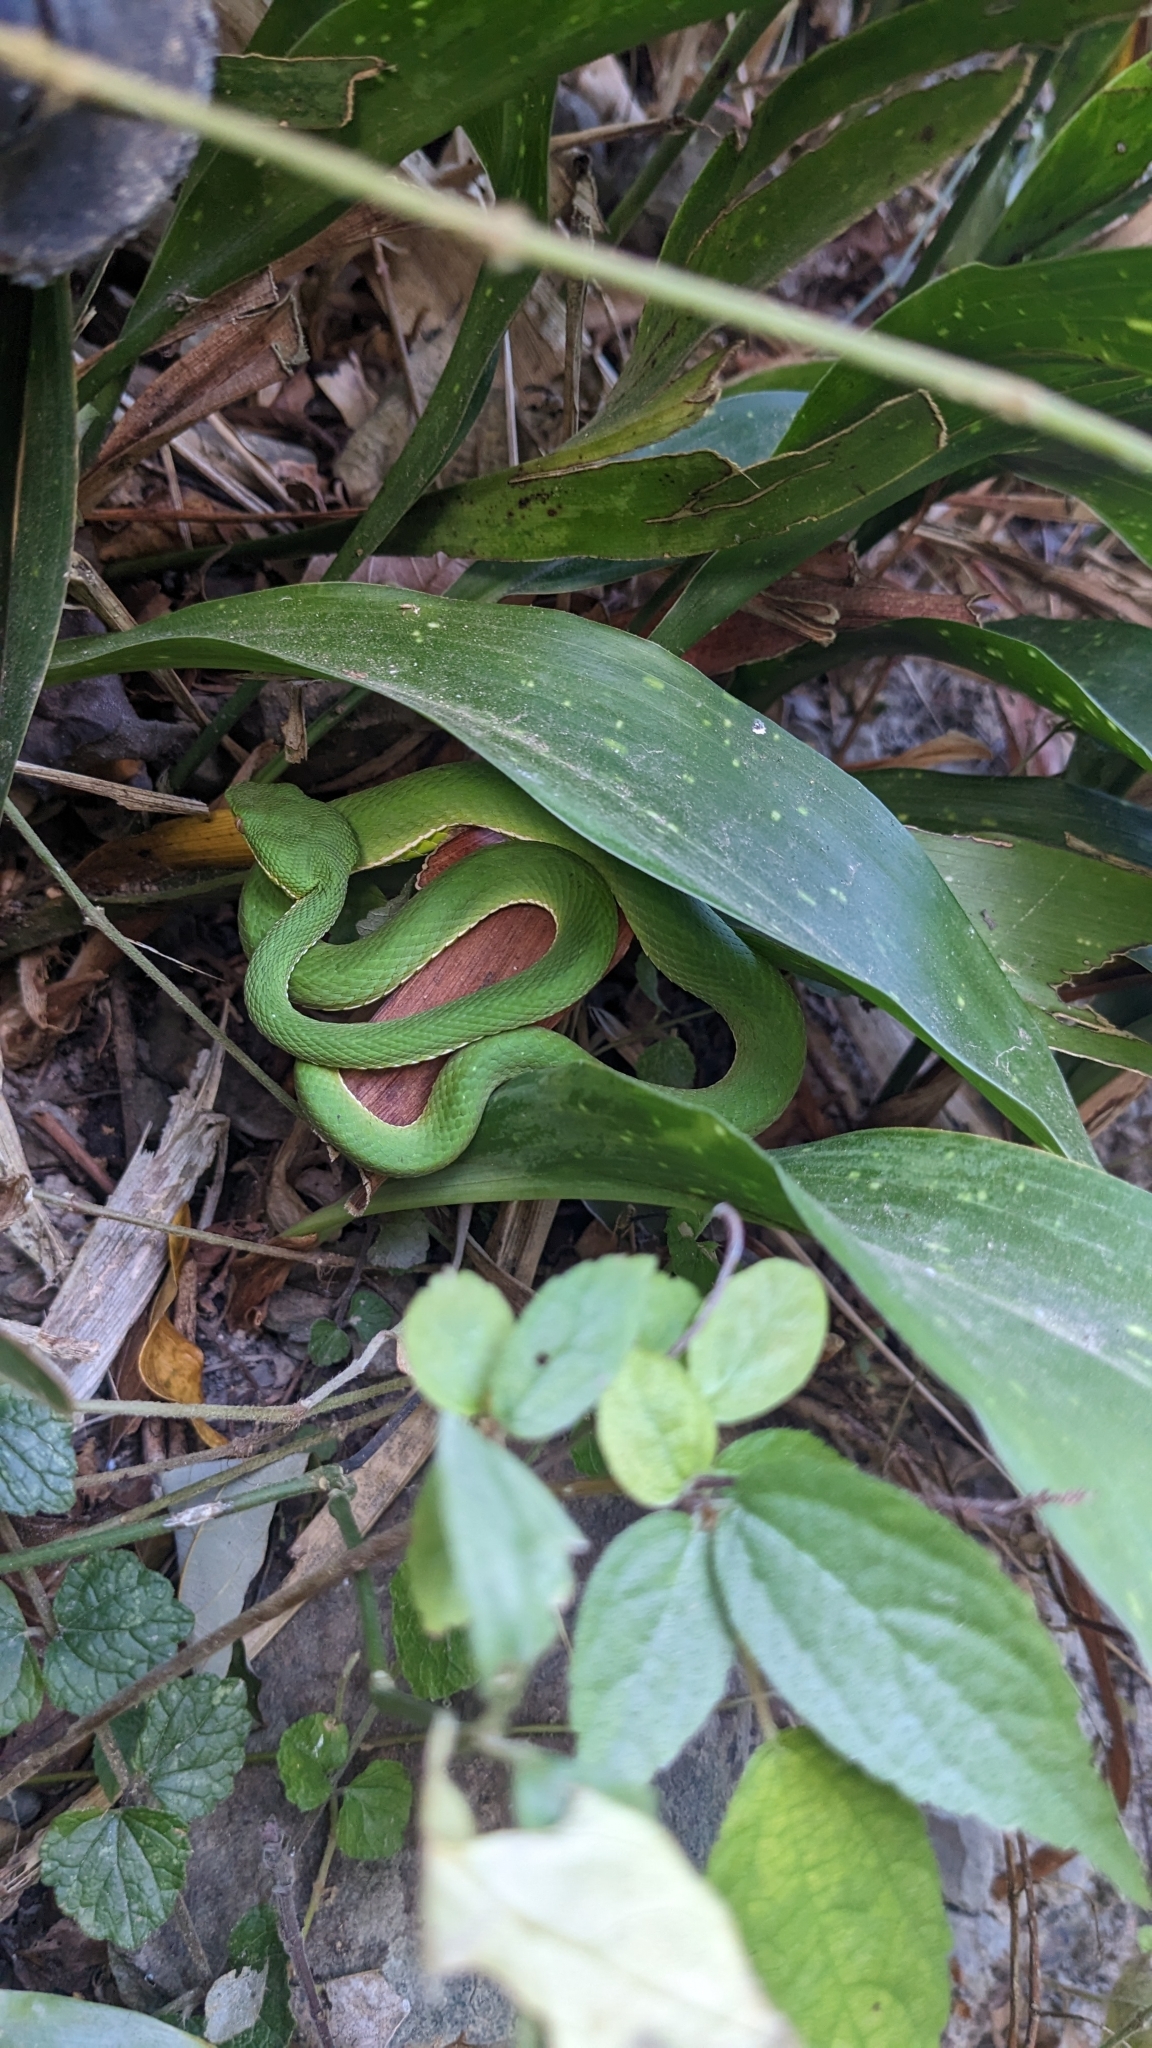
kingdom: Animalia
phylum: Chordata
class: Squamata
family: Viperidae
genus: Trimeresurus
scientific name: Trimeresurus stejnegeri
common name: Chen’s bamboo pit viper
